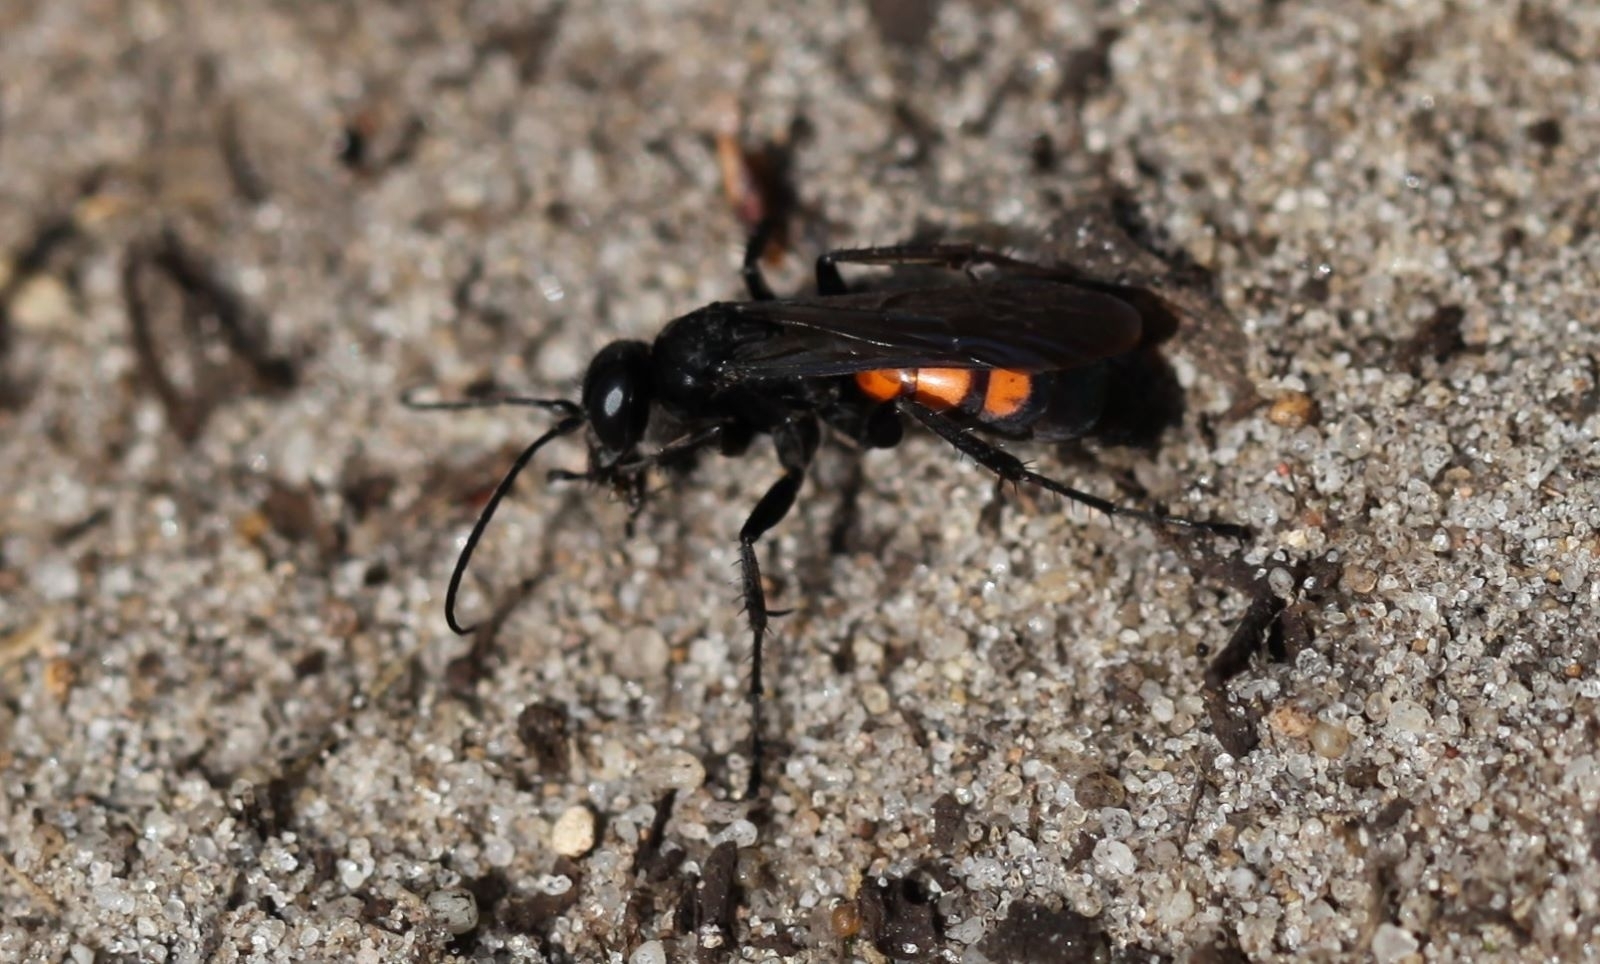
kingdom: Animalia
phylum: Arthropoda
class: Insecta
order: Hymenoptera
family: Pompilidae
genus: Anoplius
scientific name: Anoplius viaticus
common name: Black banded spider wasp
